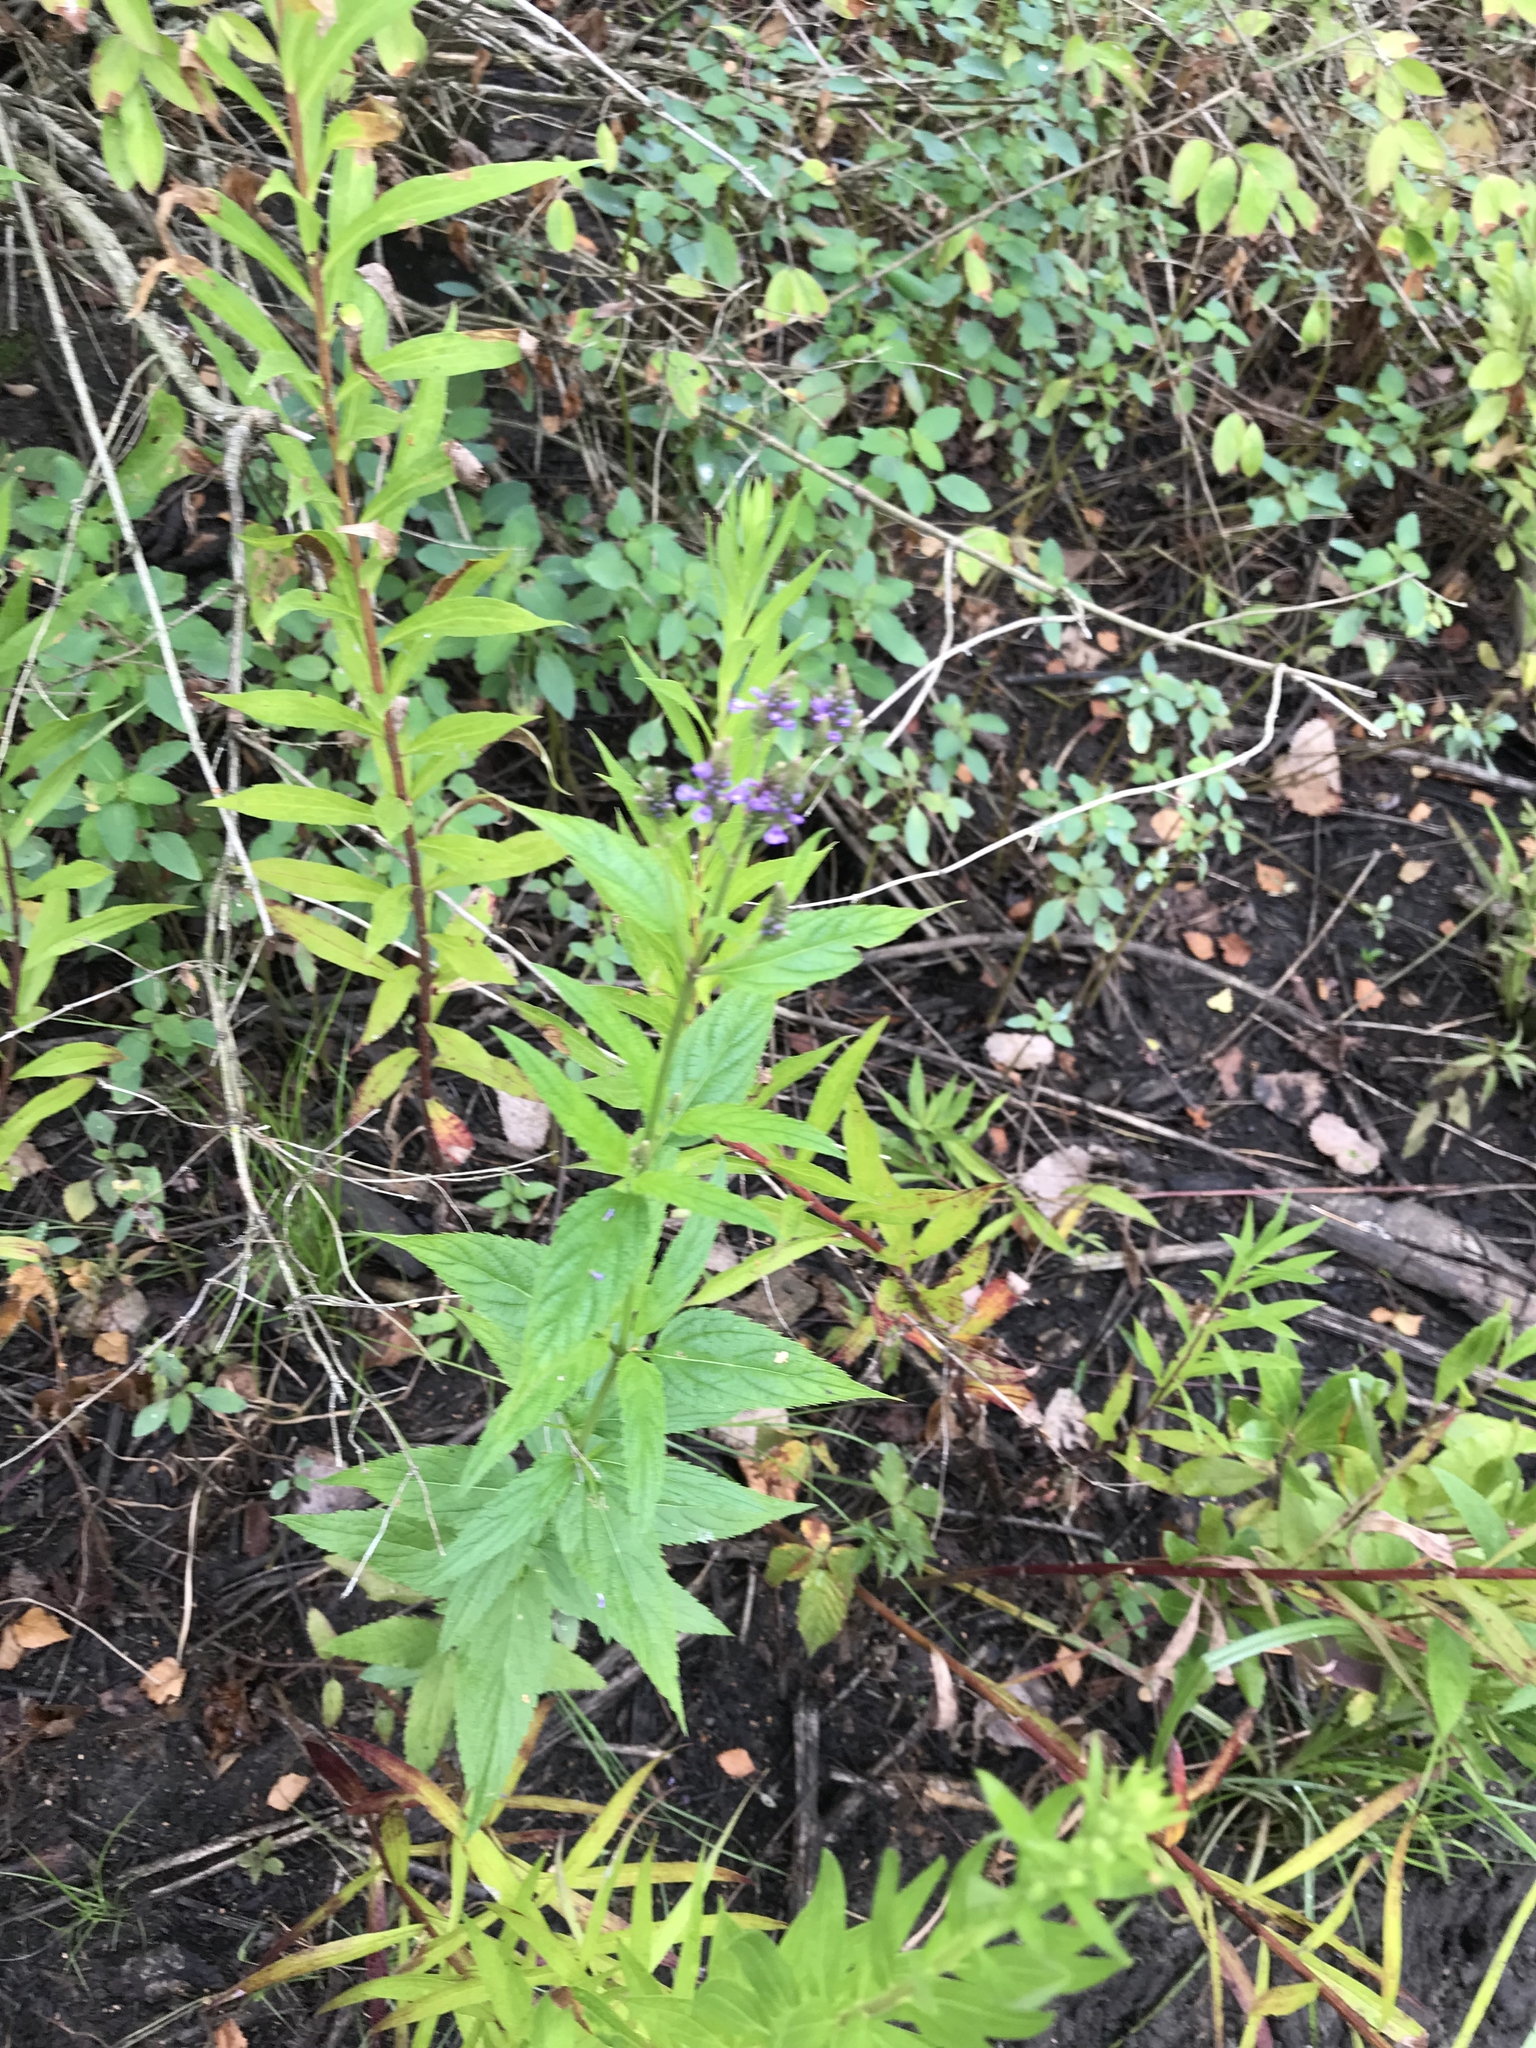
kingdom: Plantae
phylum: Tracheophyta
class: Magnoliopsida
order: Lamiales
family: Verbenaceae
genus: Verbena
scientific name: Verbena hastata
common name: American blue vervain
